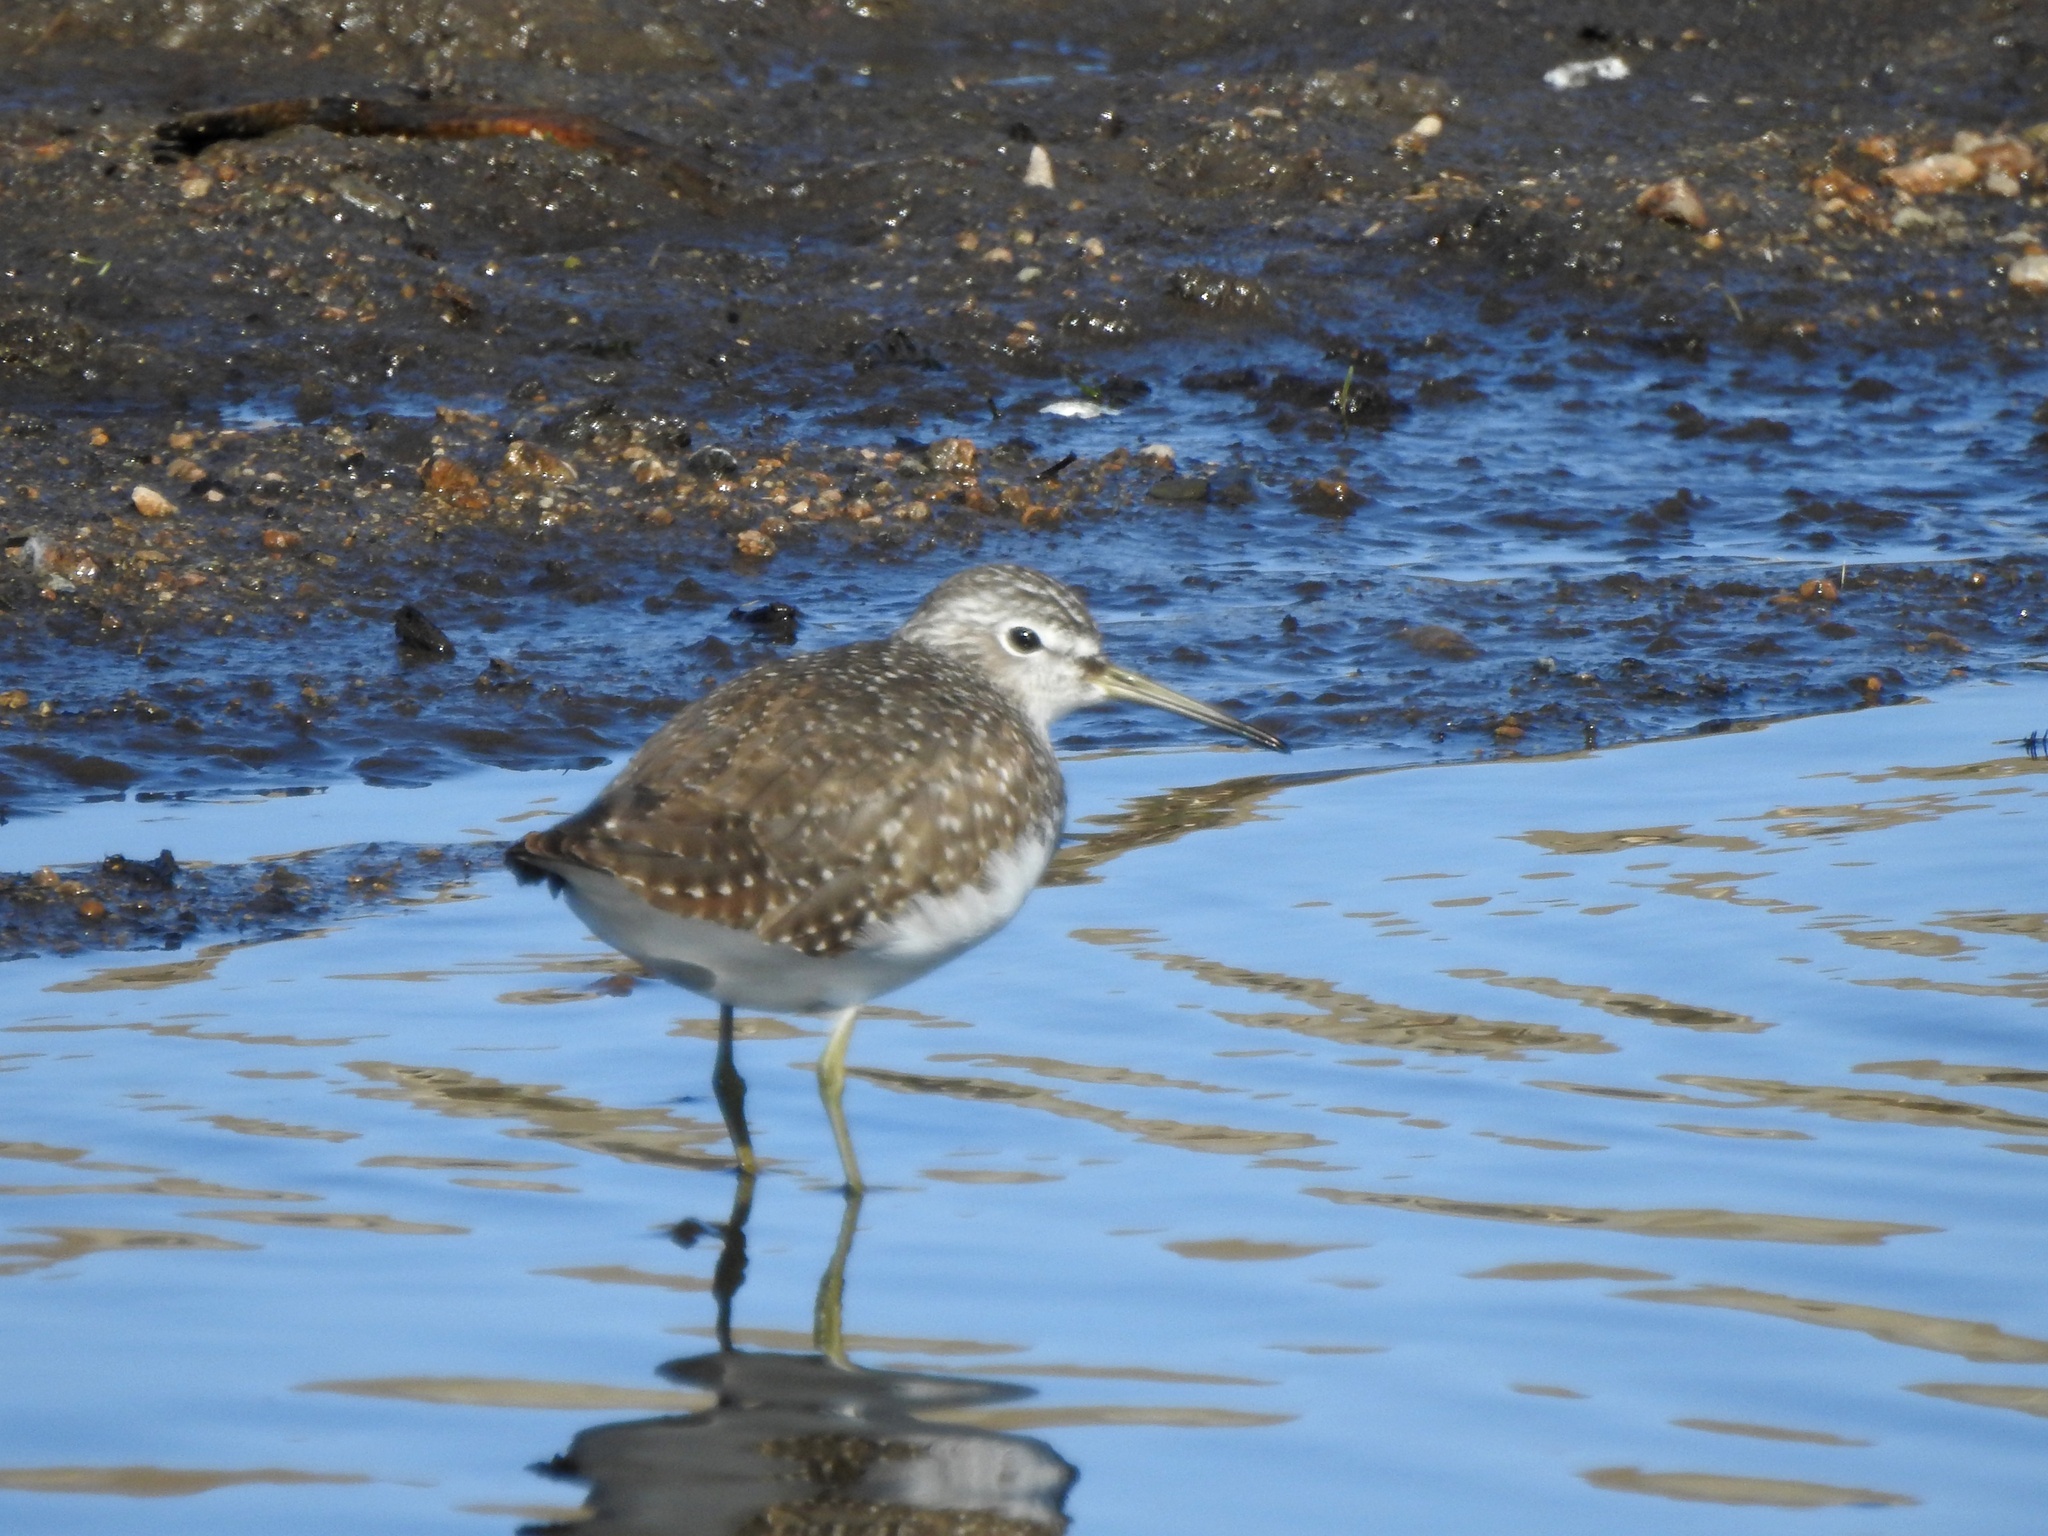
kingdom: Animalia
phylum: Chordata
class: Aves
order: Charadriiformes
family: Scolopacidae
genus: Tringa
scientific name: Tringa glareola
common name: Wood sandpiper
